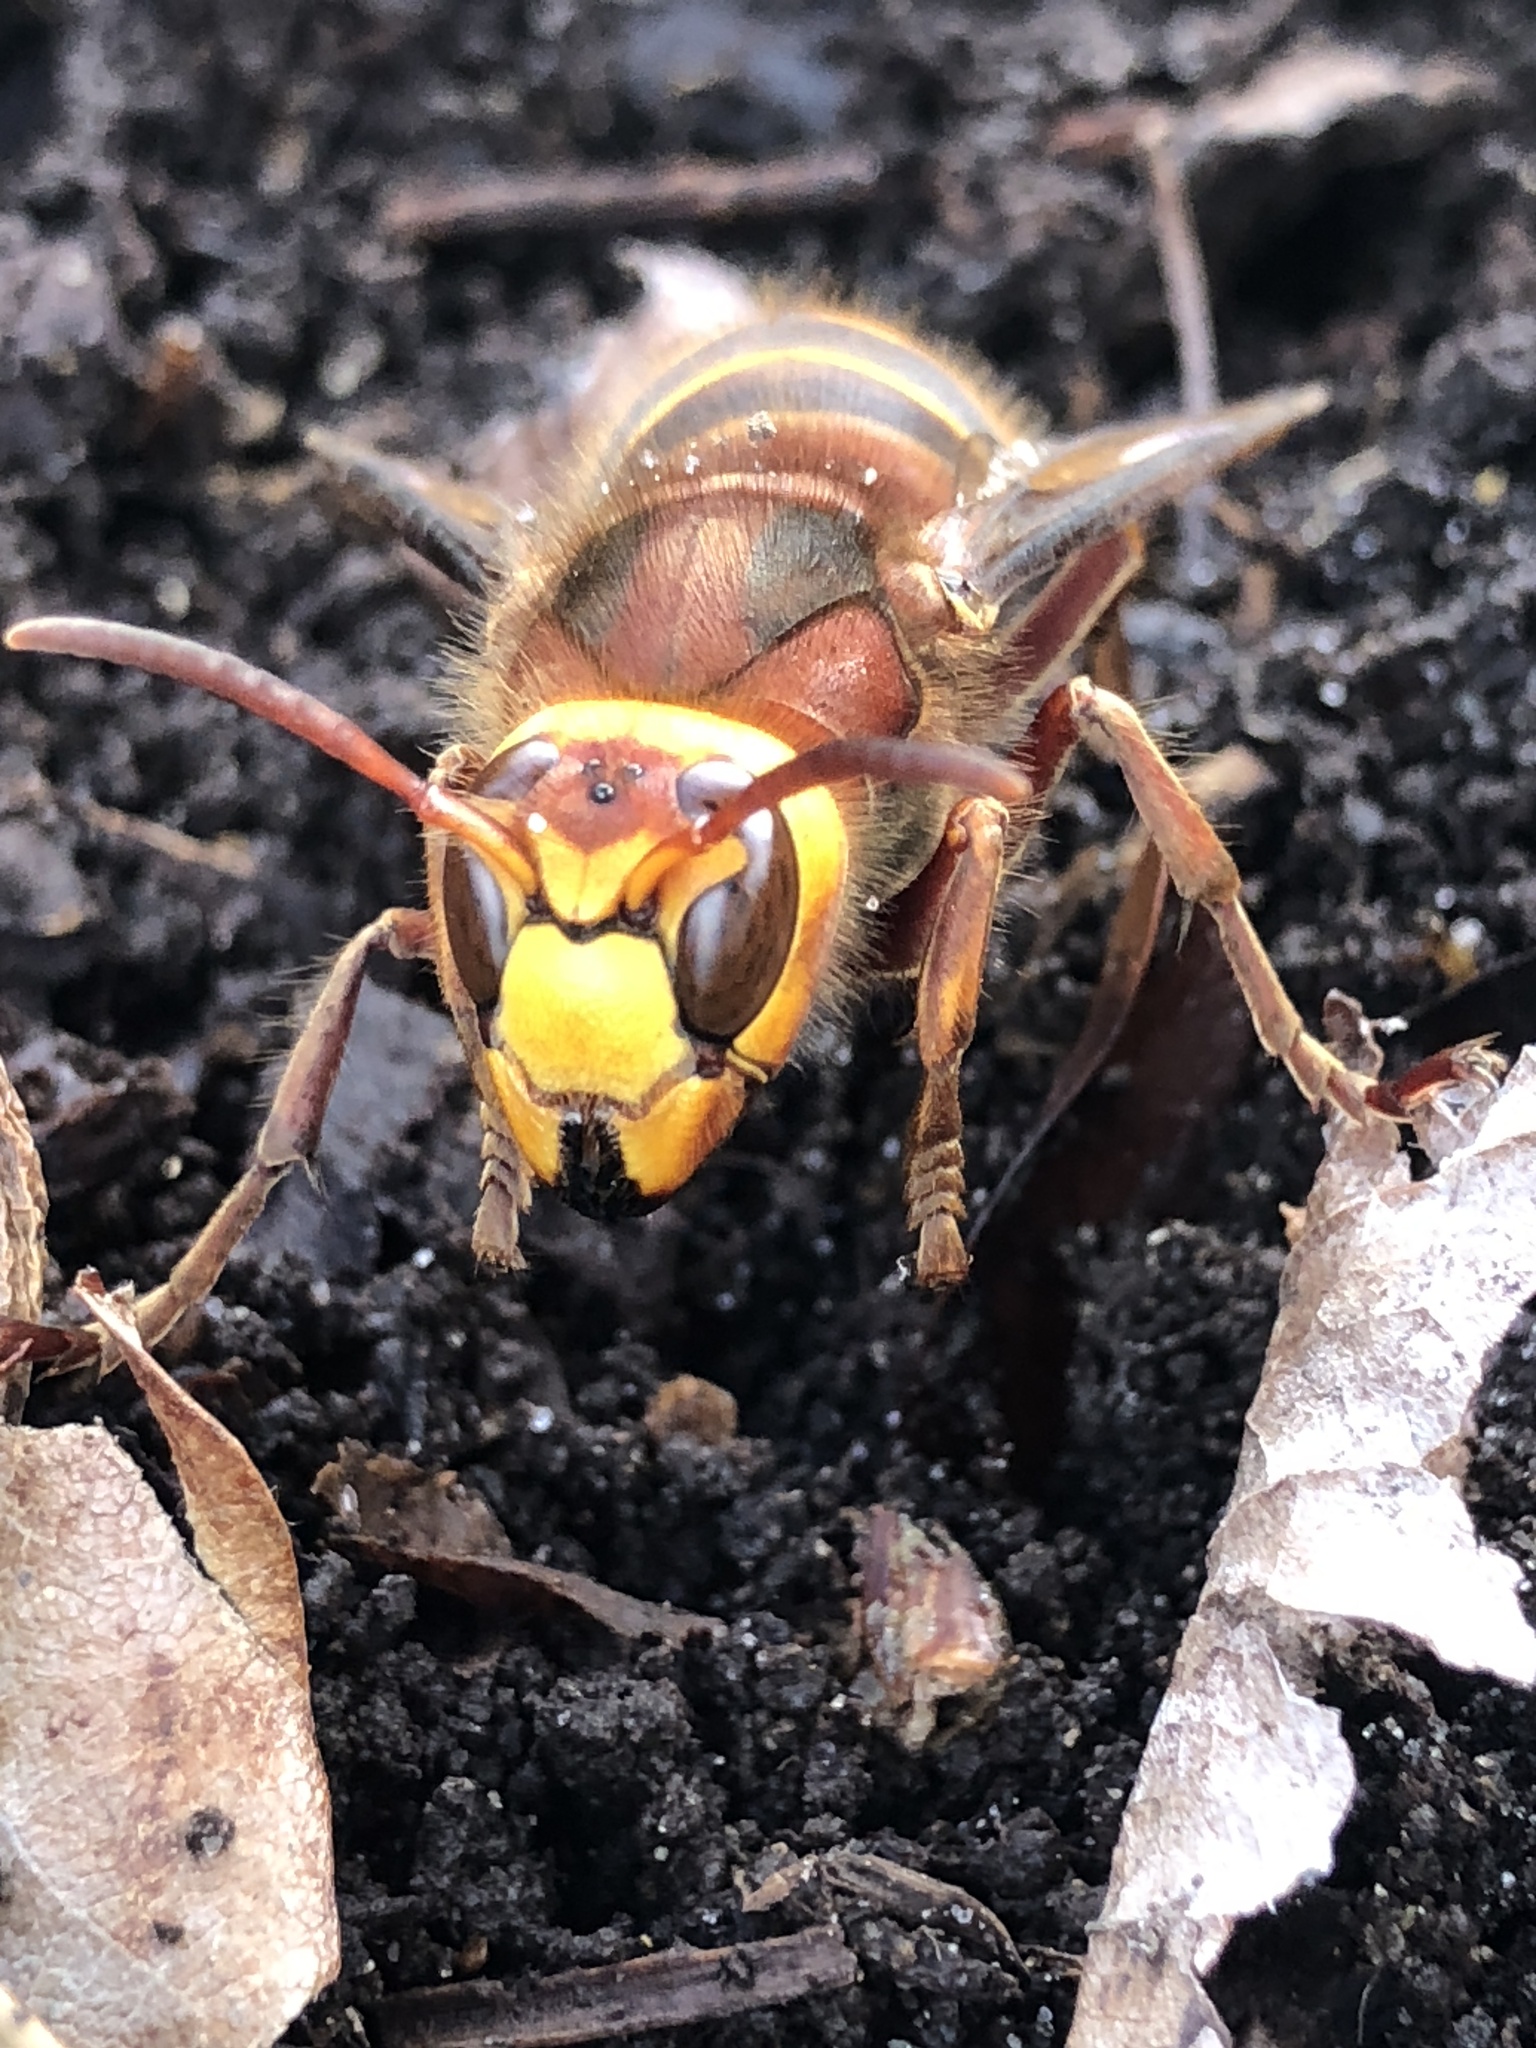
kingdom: Animalia
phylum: Arthropoda
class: Insecta
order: Hymenoptera
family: Vespidae
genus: Vespa
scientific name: Vespa crabro
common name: Hornet
